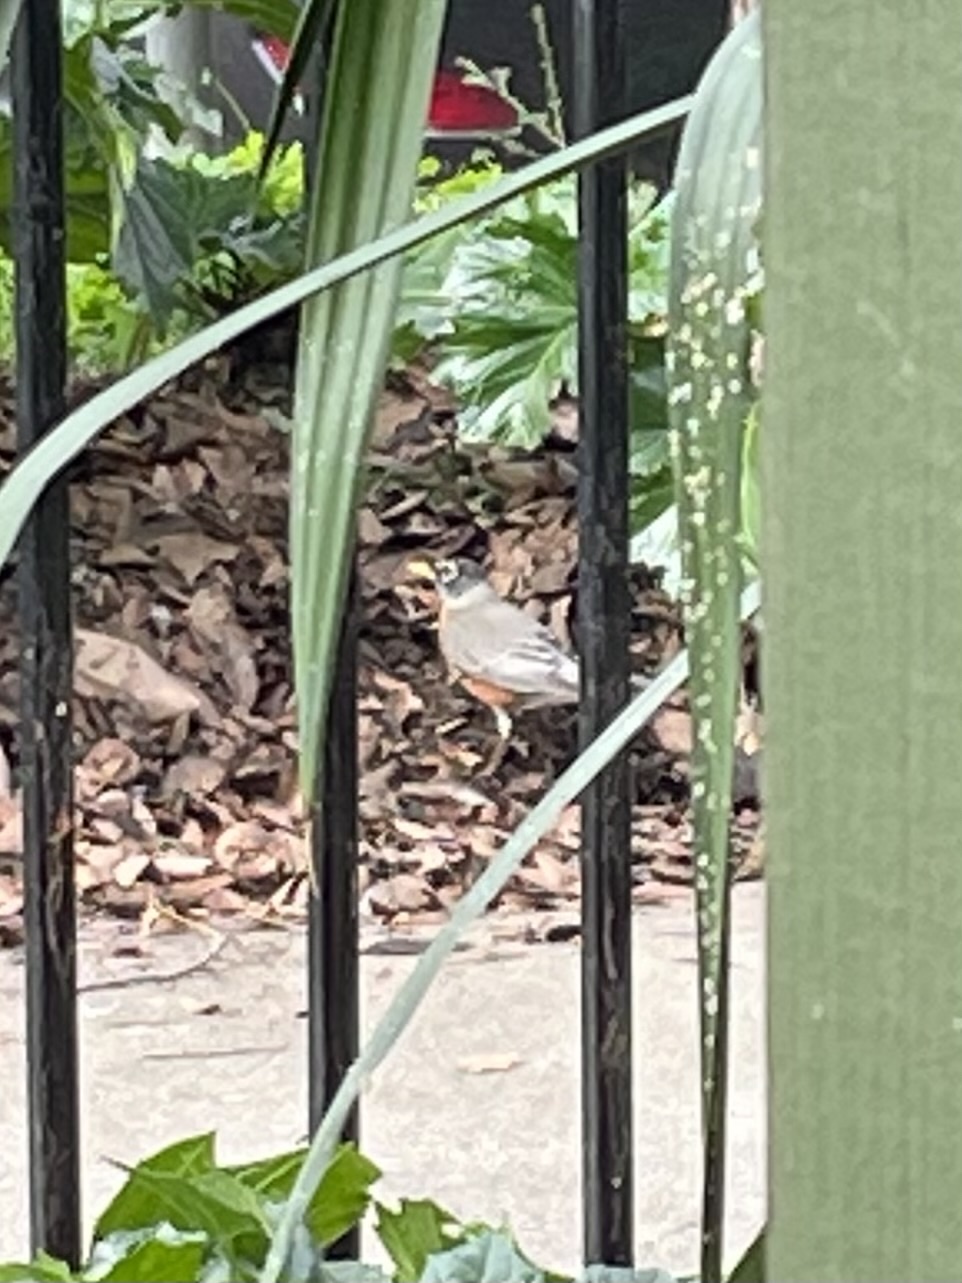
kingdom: Animalia
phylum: Chordata
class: Aves
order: Passeriformes
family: Turdidae
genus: Turdus
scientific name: Turdus migratorius
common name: American robin
